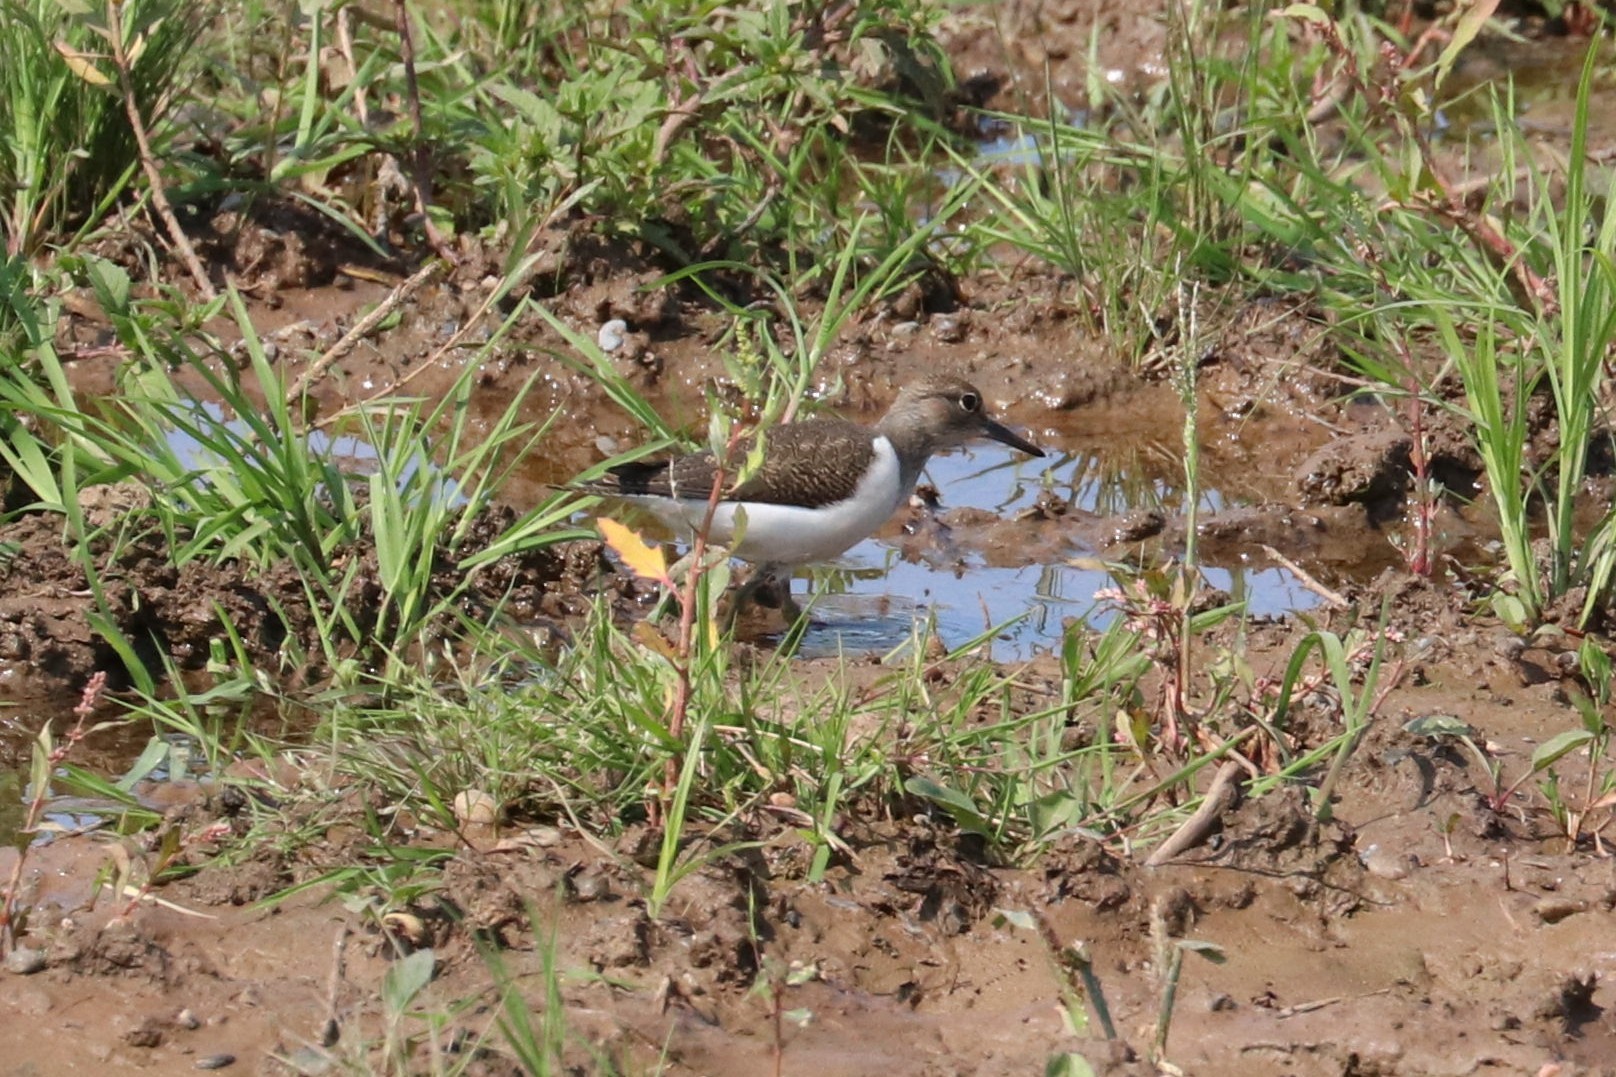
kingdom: Animalia
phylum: Chordata
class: Aves
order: Charadriiformes
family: Scolopacidae
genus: Actitis
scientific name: Actitis hypoleucos
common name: Common sandpiper
